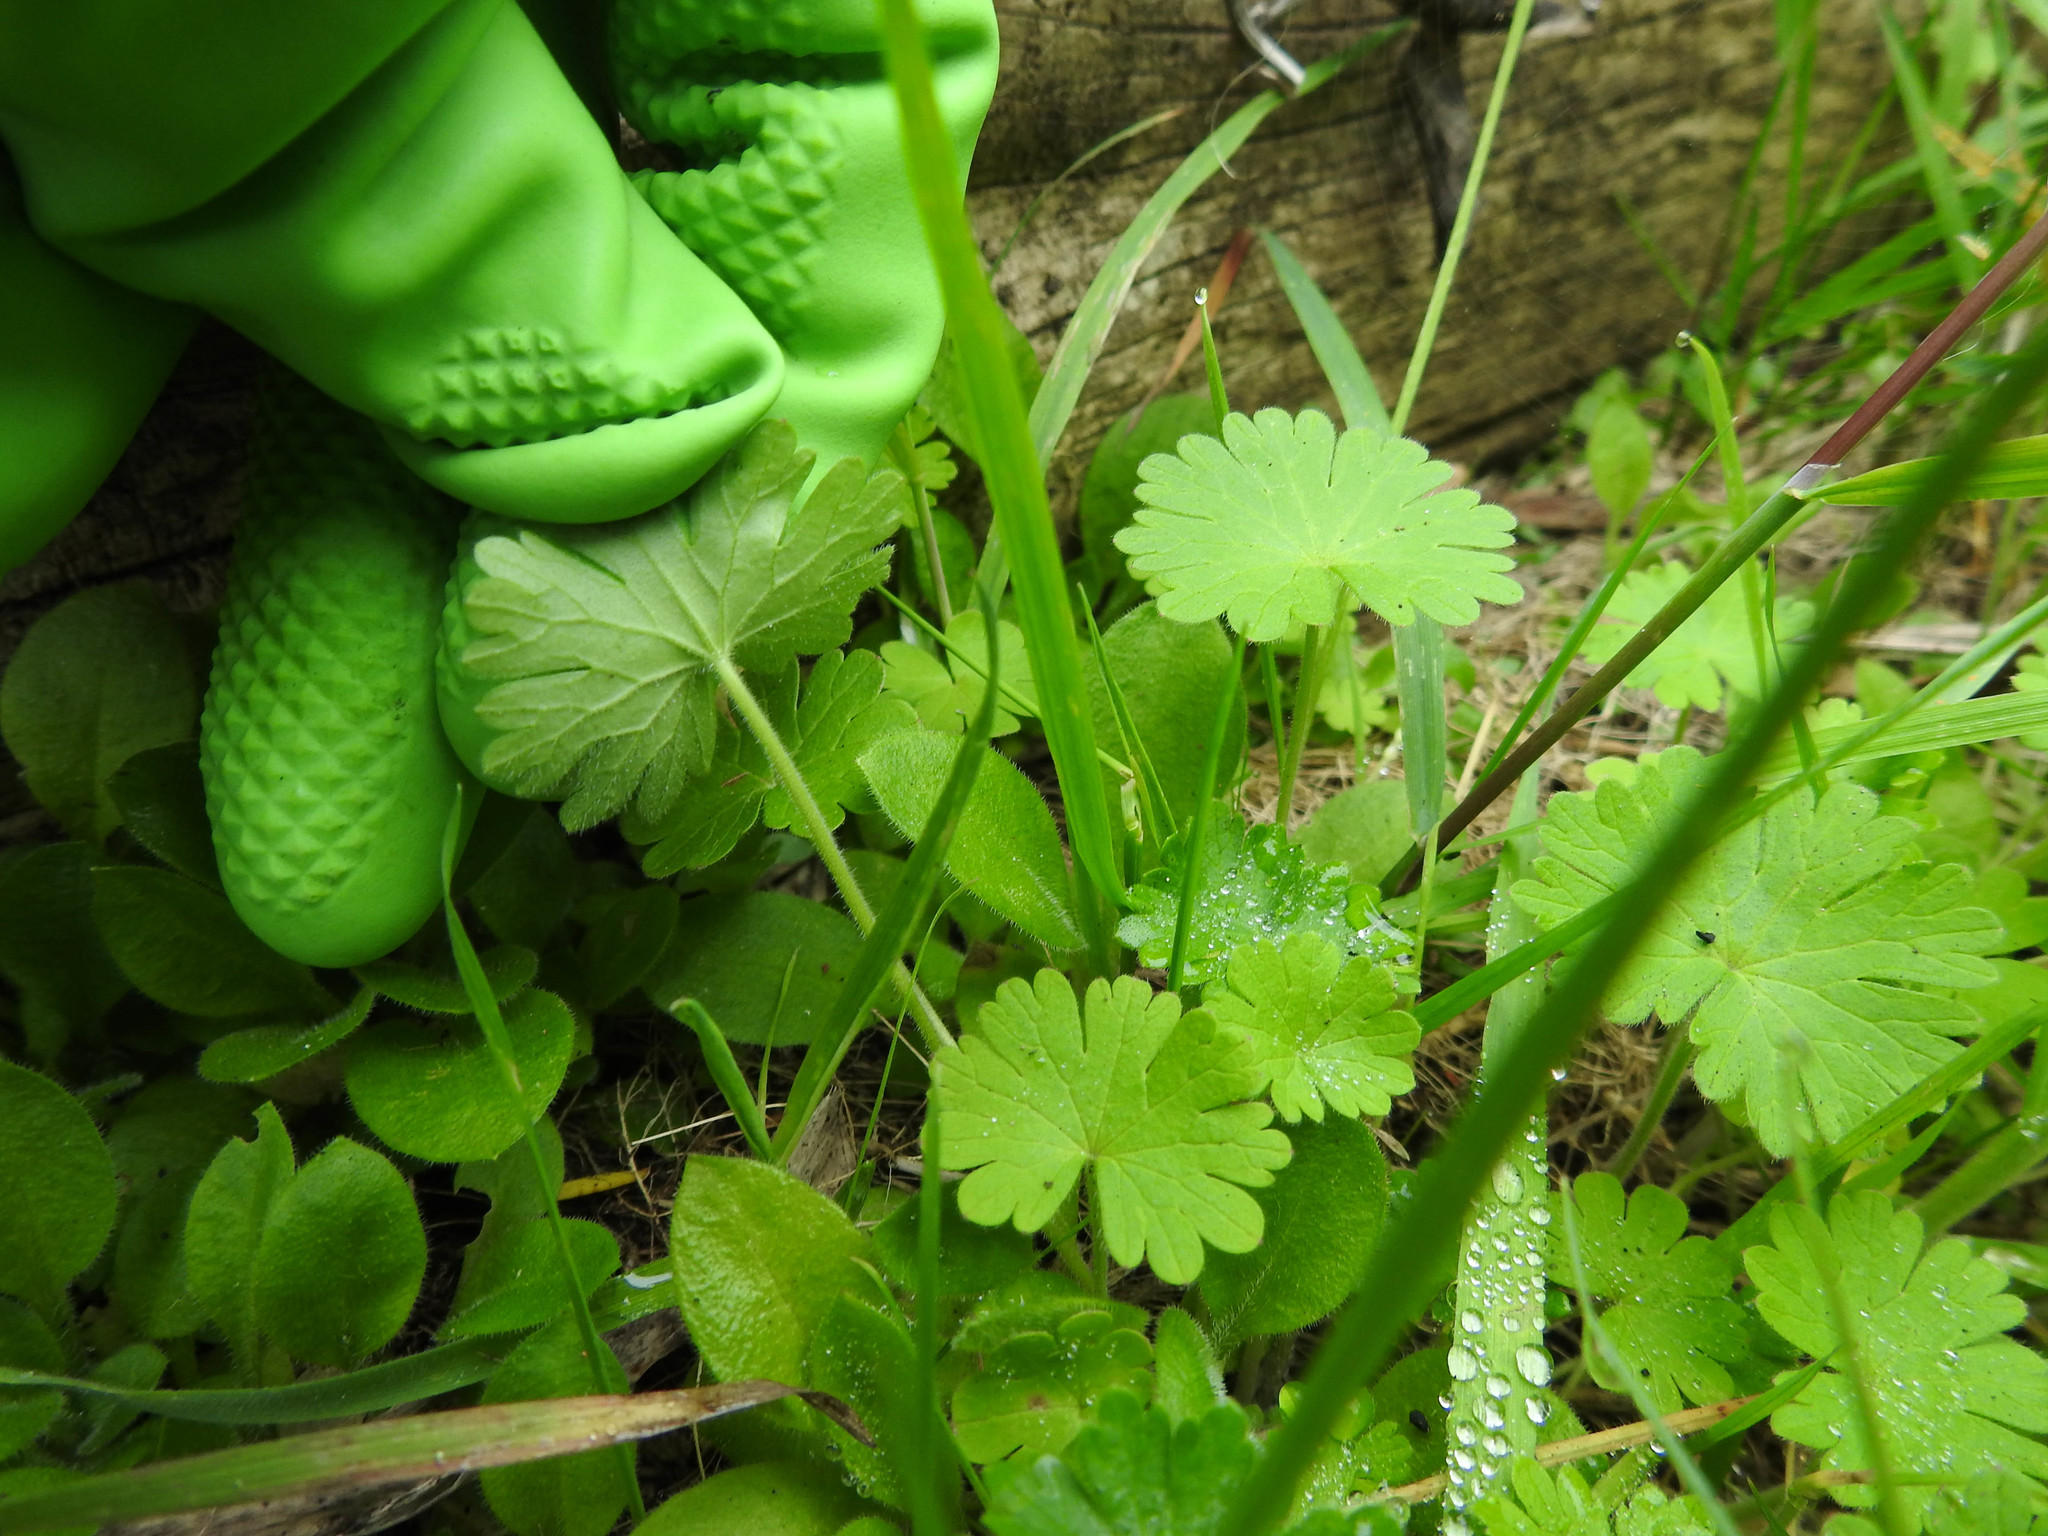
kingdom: Plantae
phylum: Tracheophyta
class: Magnoliopsida
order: Geraniales
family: Geraniaceae
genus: Geranium
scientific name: Geranium molle
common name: Dove's-foot crane's-bill
